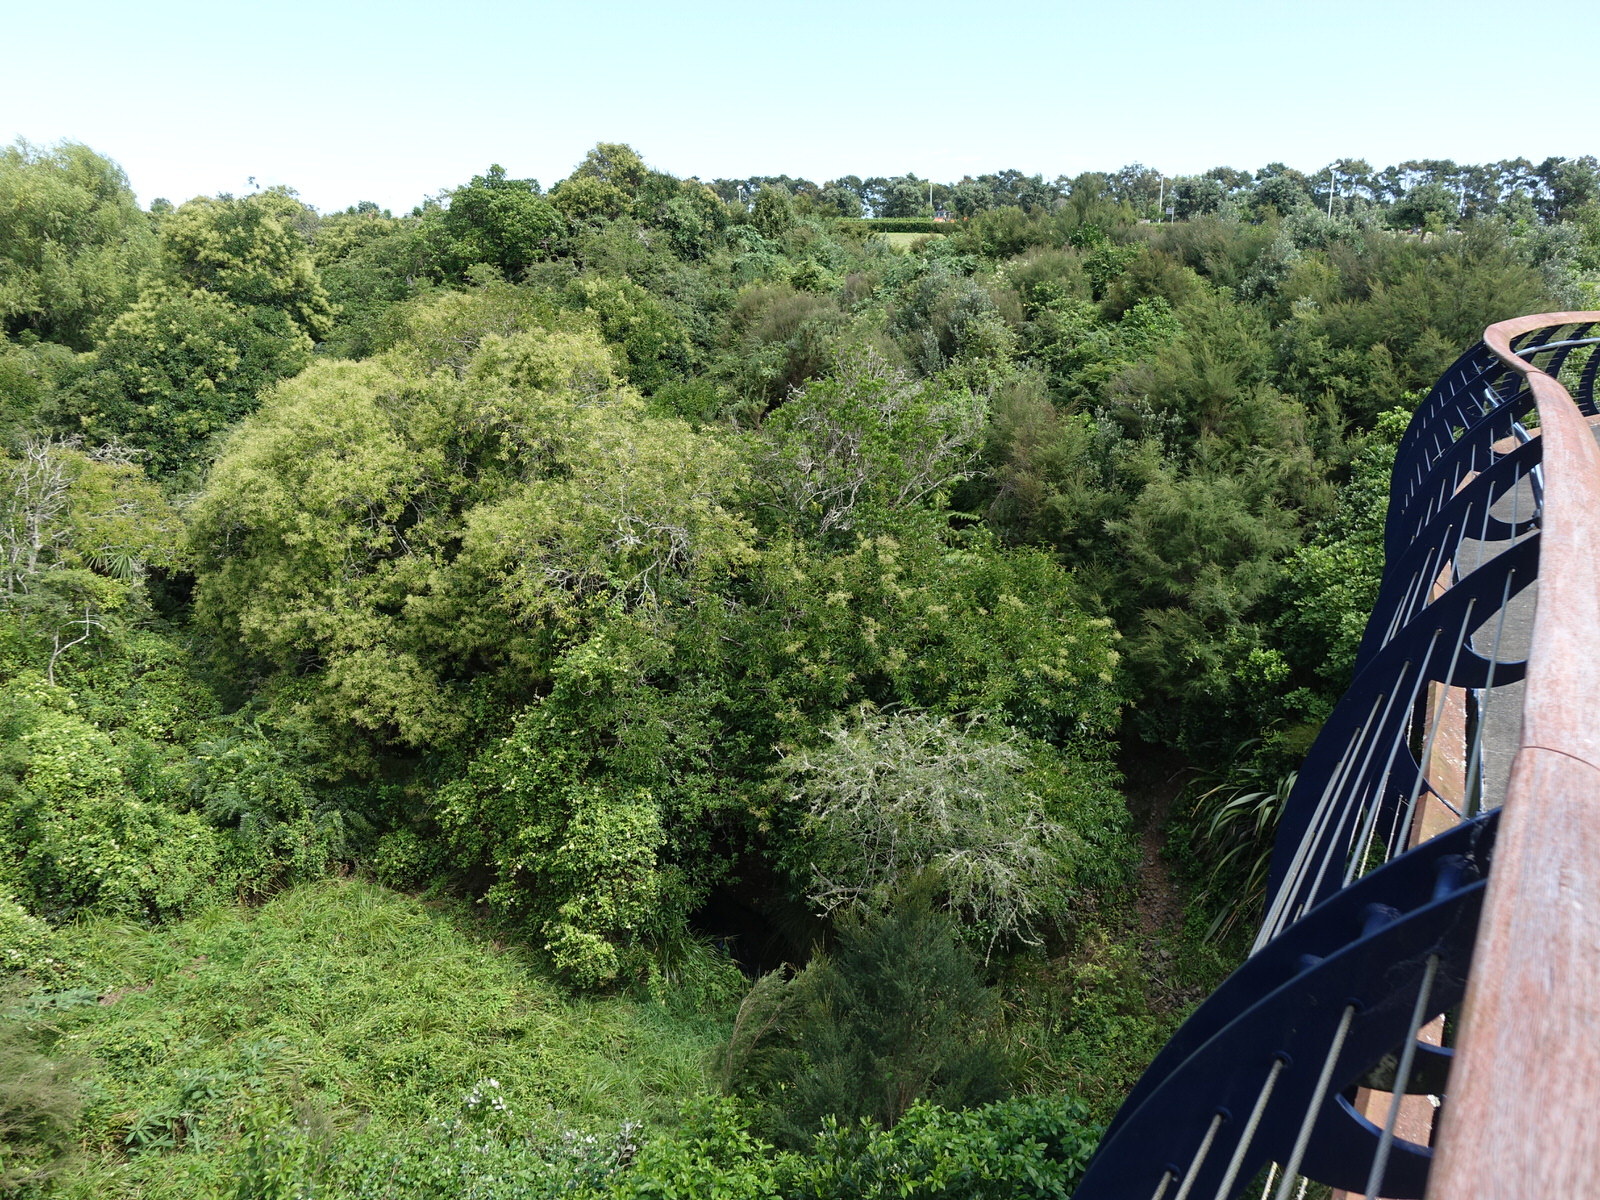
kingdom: Plantae
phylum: Tracheophyta
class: Magnoliopsida
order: Lamiales
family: Oleaceae
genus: Ligustrum
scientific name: Ligustrum lucidum
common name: Glossy privet
